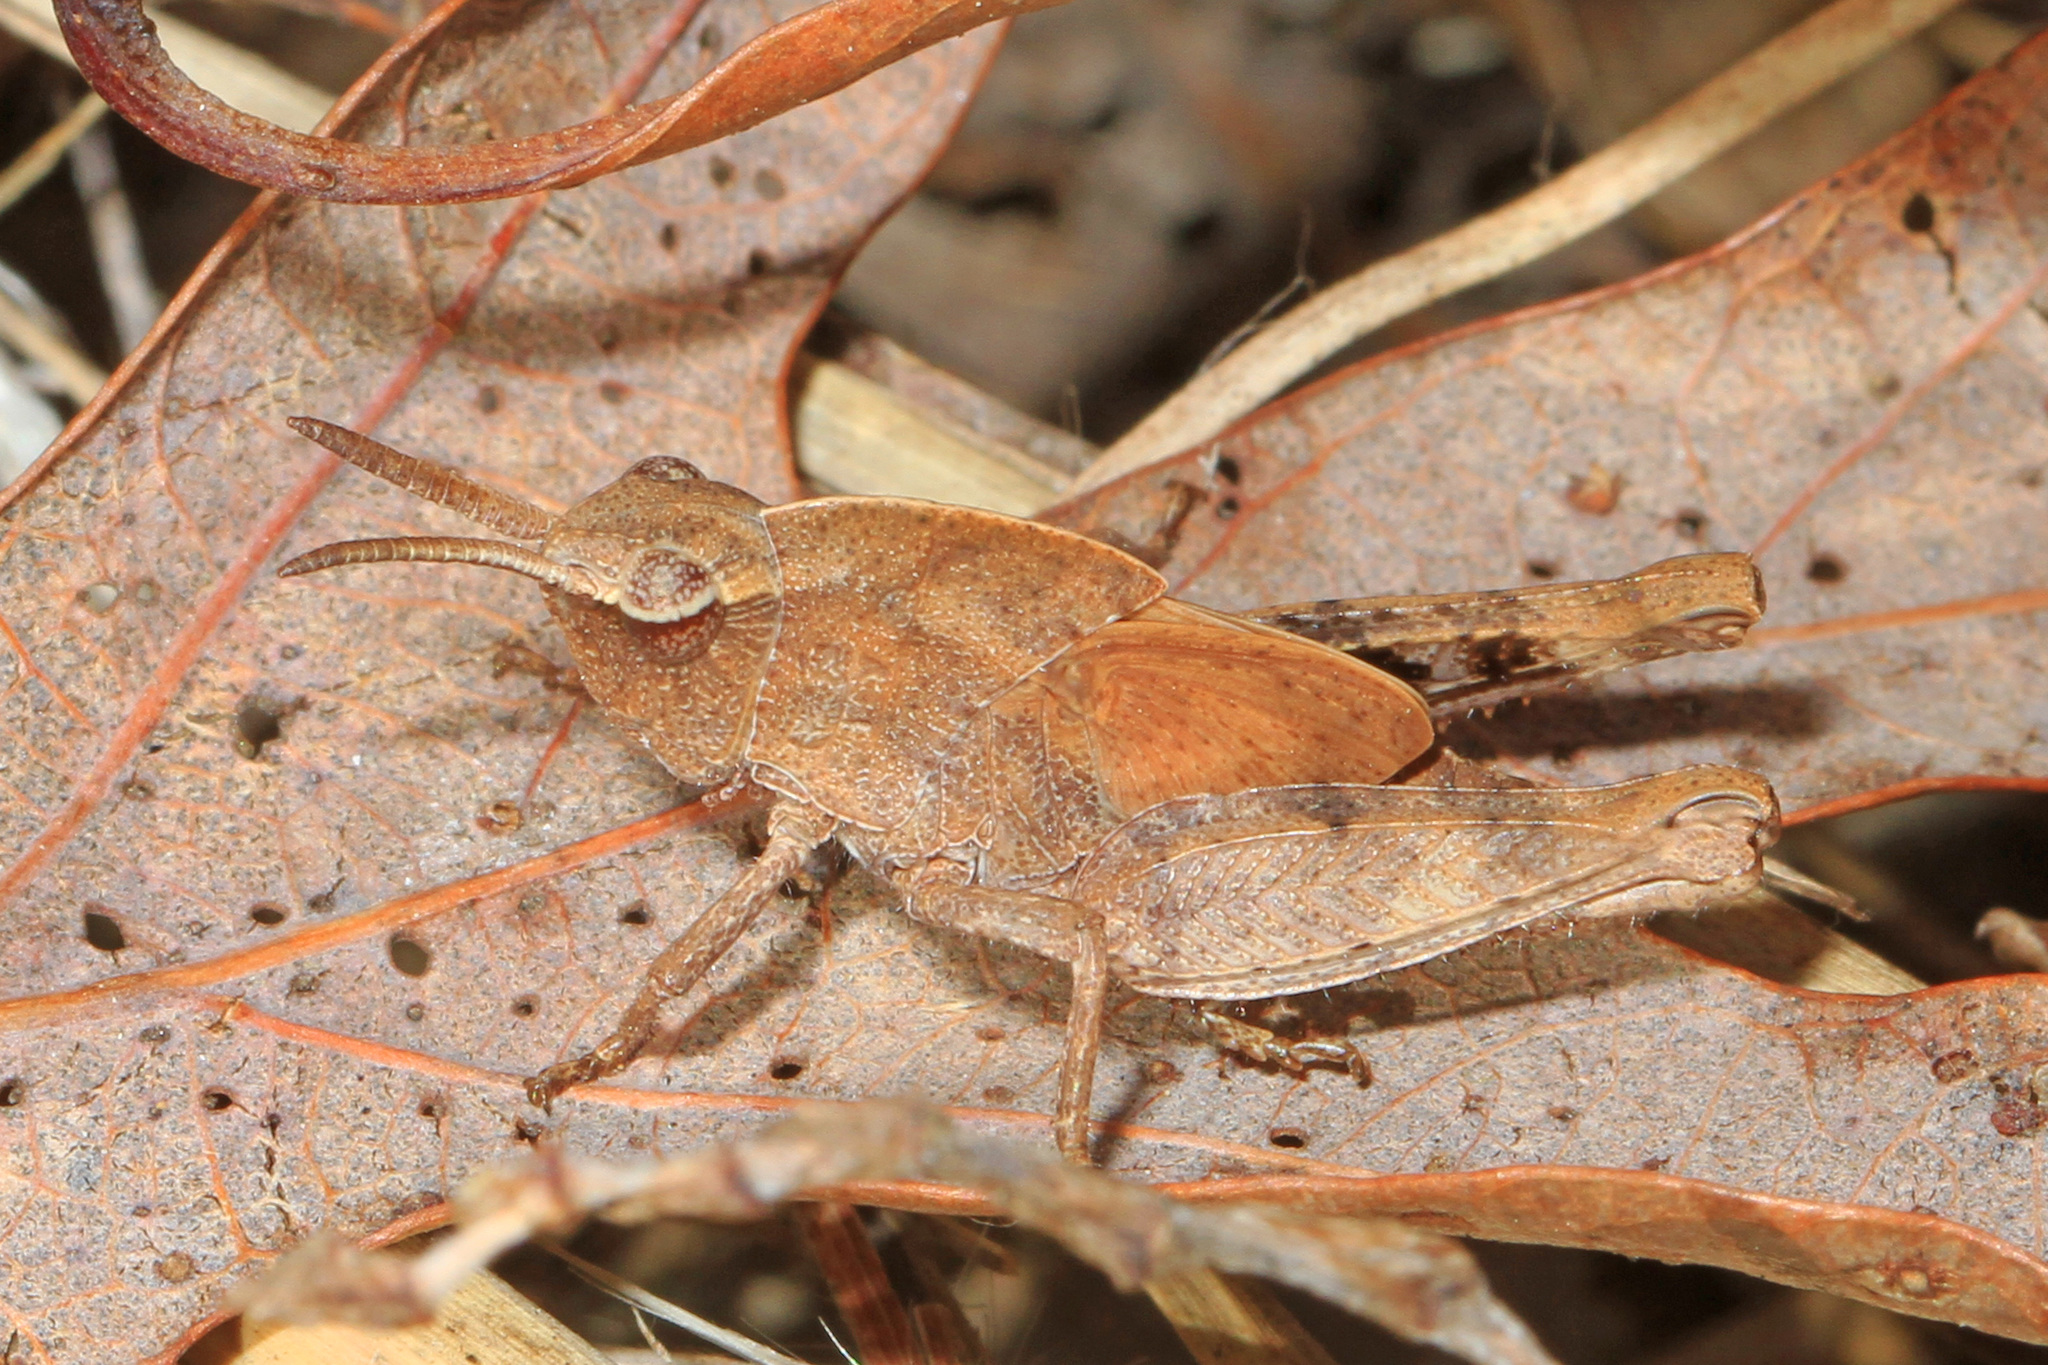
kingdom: Animalia
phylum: Arthropoda
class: Insecta
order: Orthoptera
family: Acrididae
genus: Chortophaga
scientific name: Chortophaga viridifasciata
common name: Green-striped grasshopper
